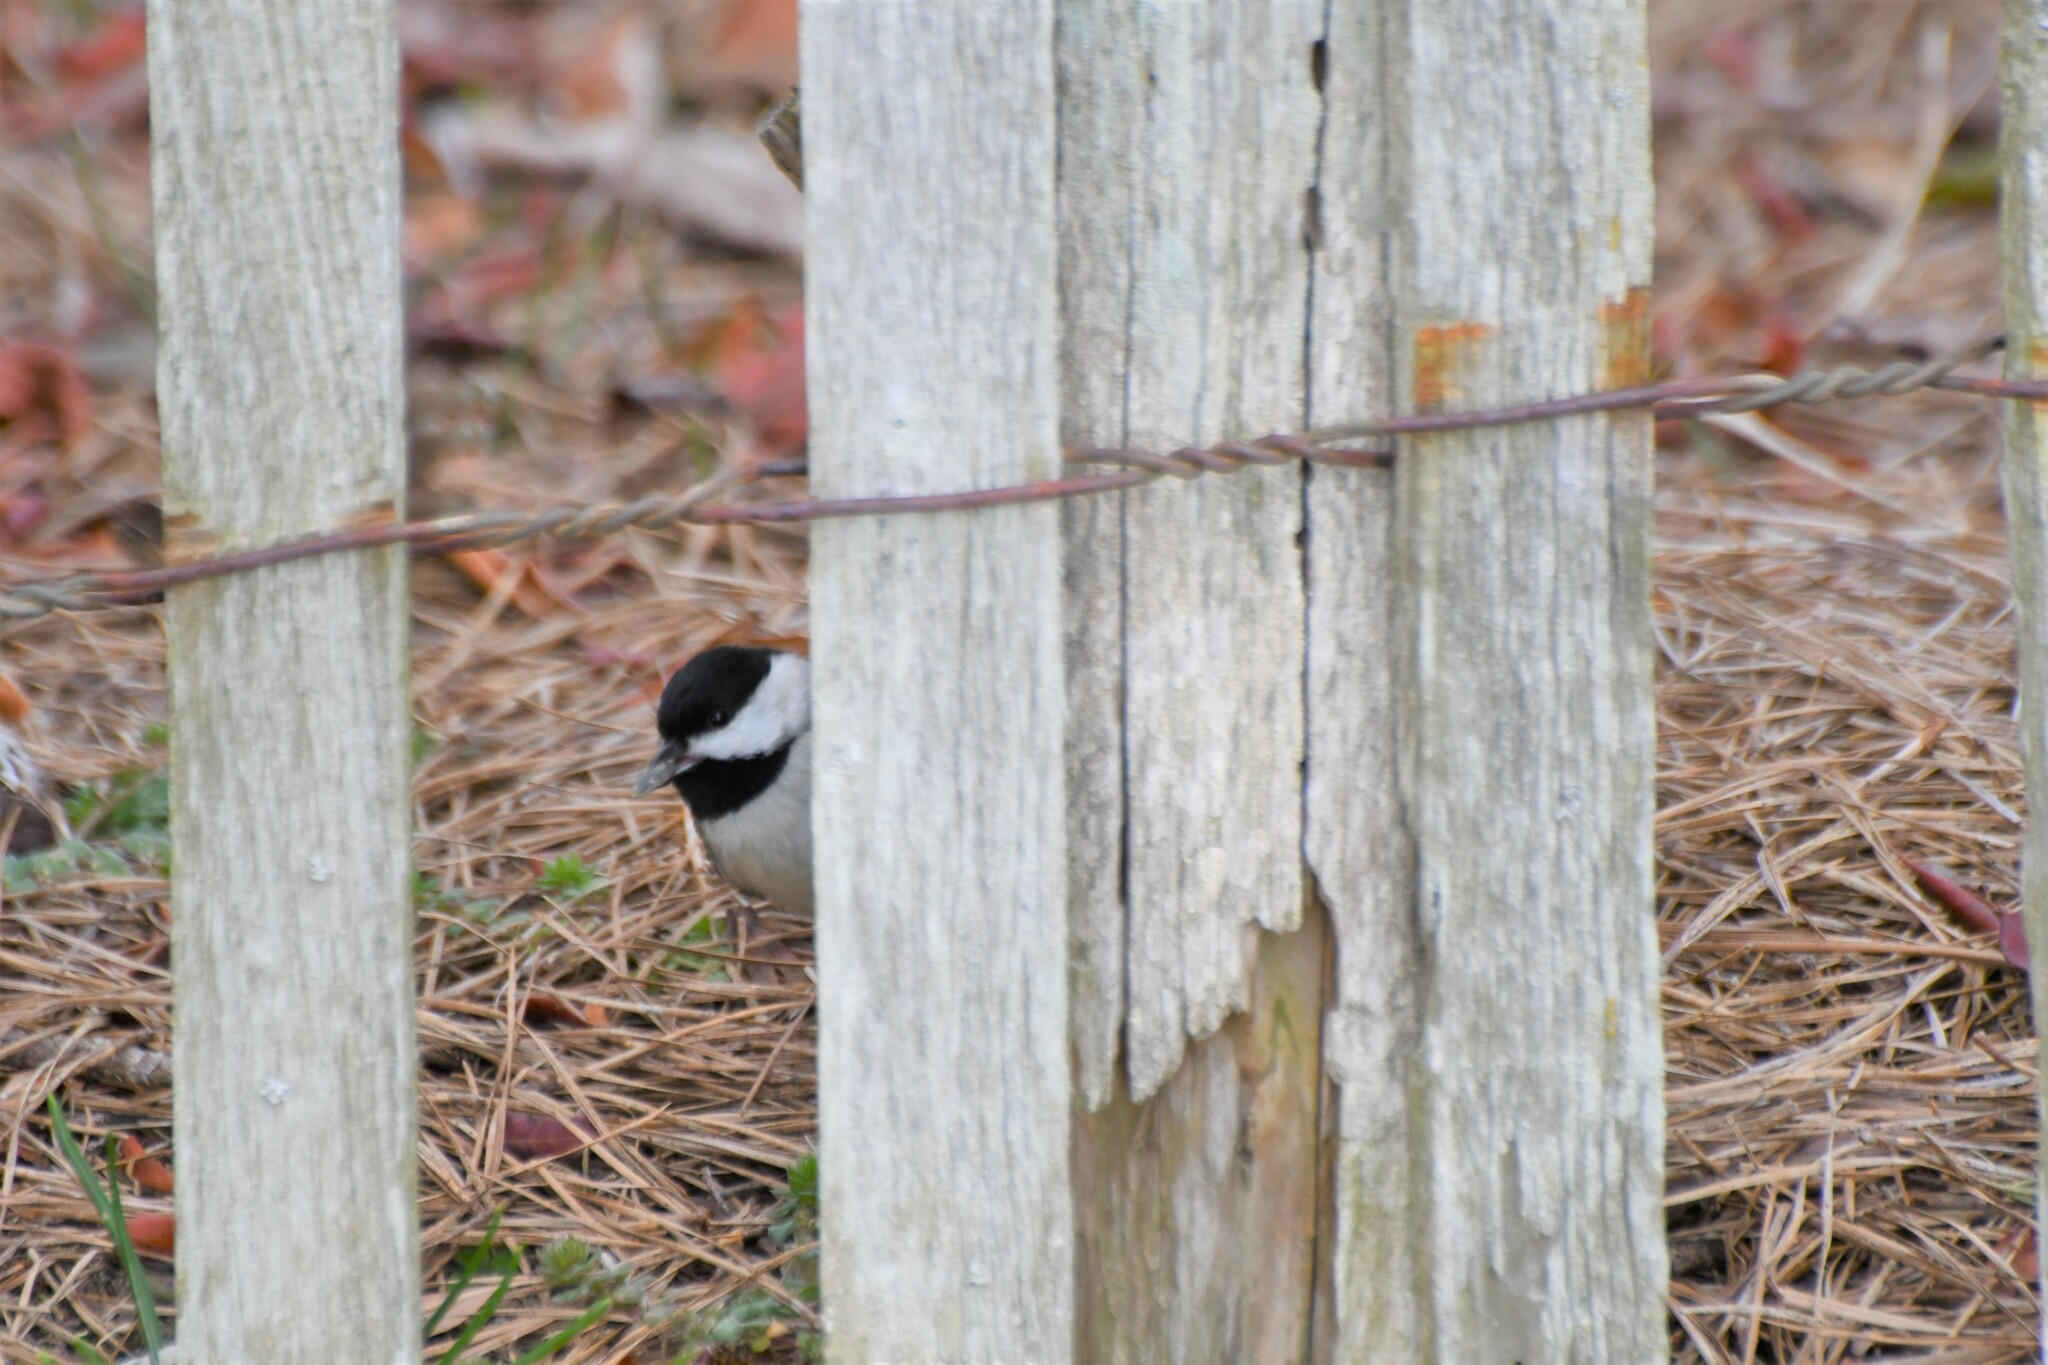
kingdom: Animalia
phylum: Chordata
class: Aves
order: Passeriformes
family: Paridae
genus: Poecile
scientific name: Poecile carolinensis
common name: Carolina chickadee
